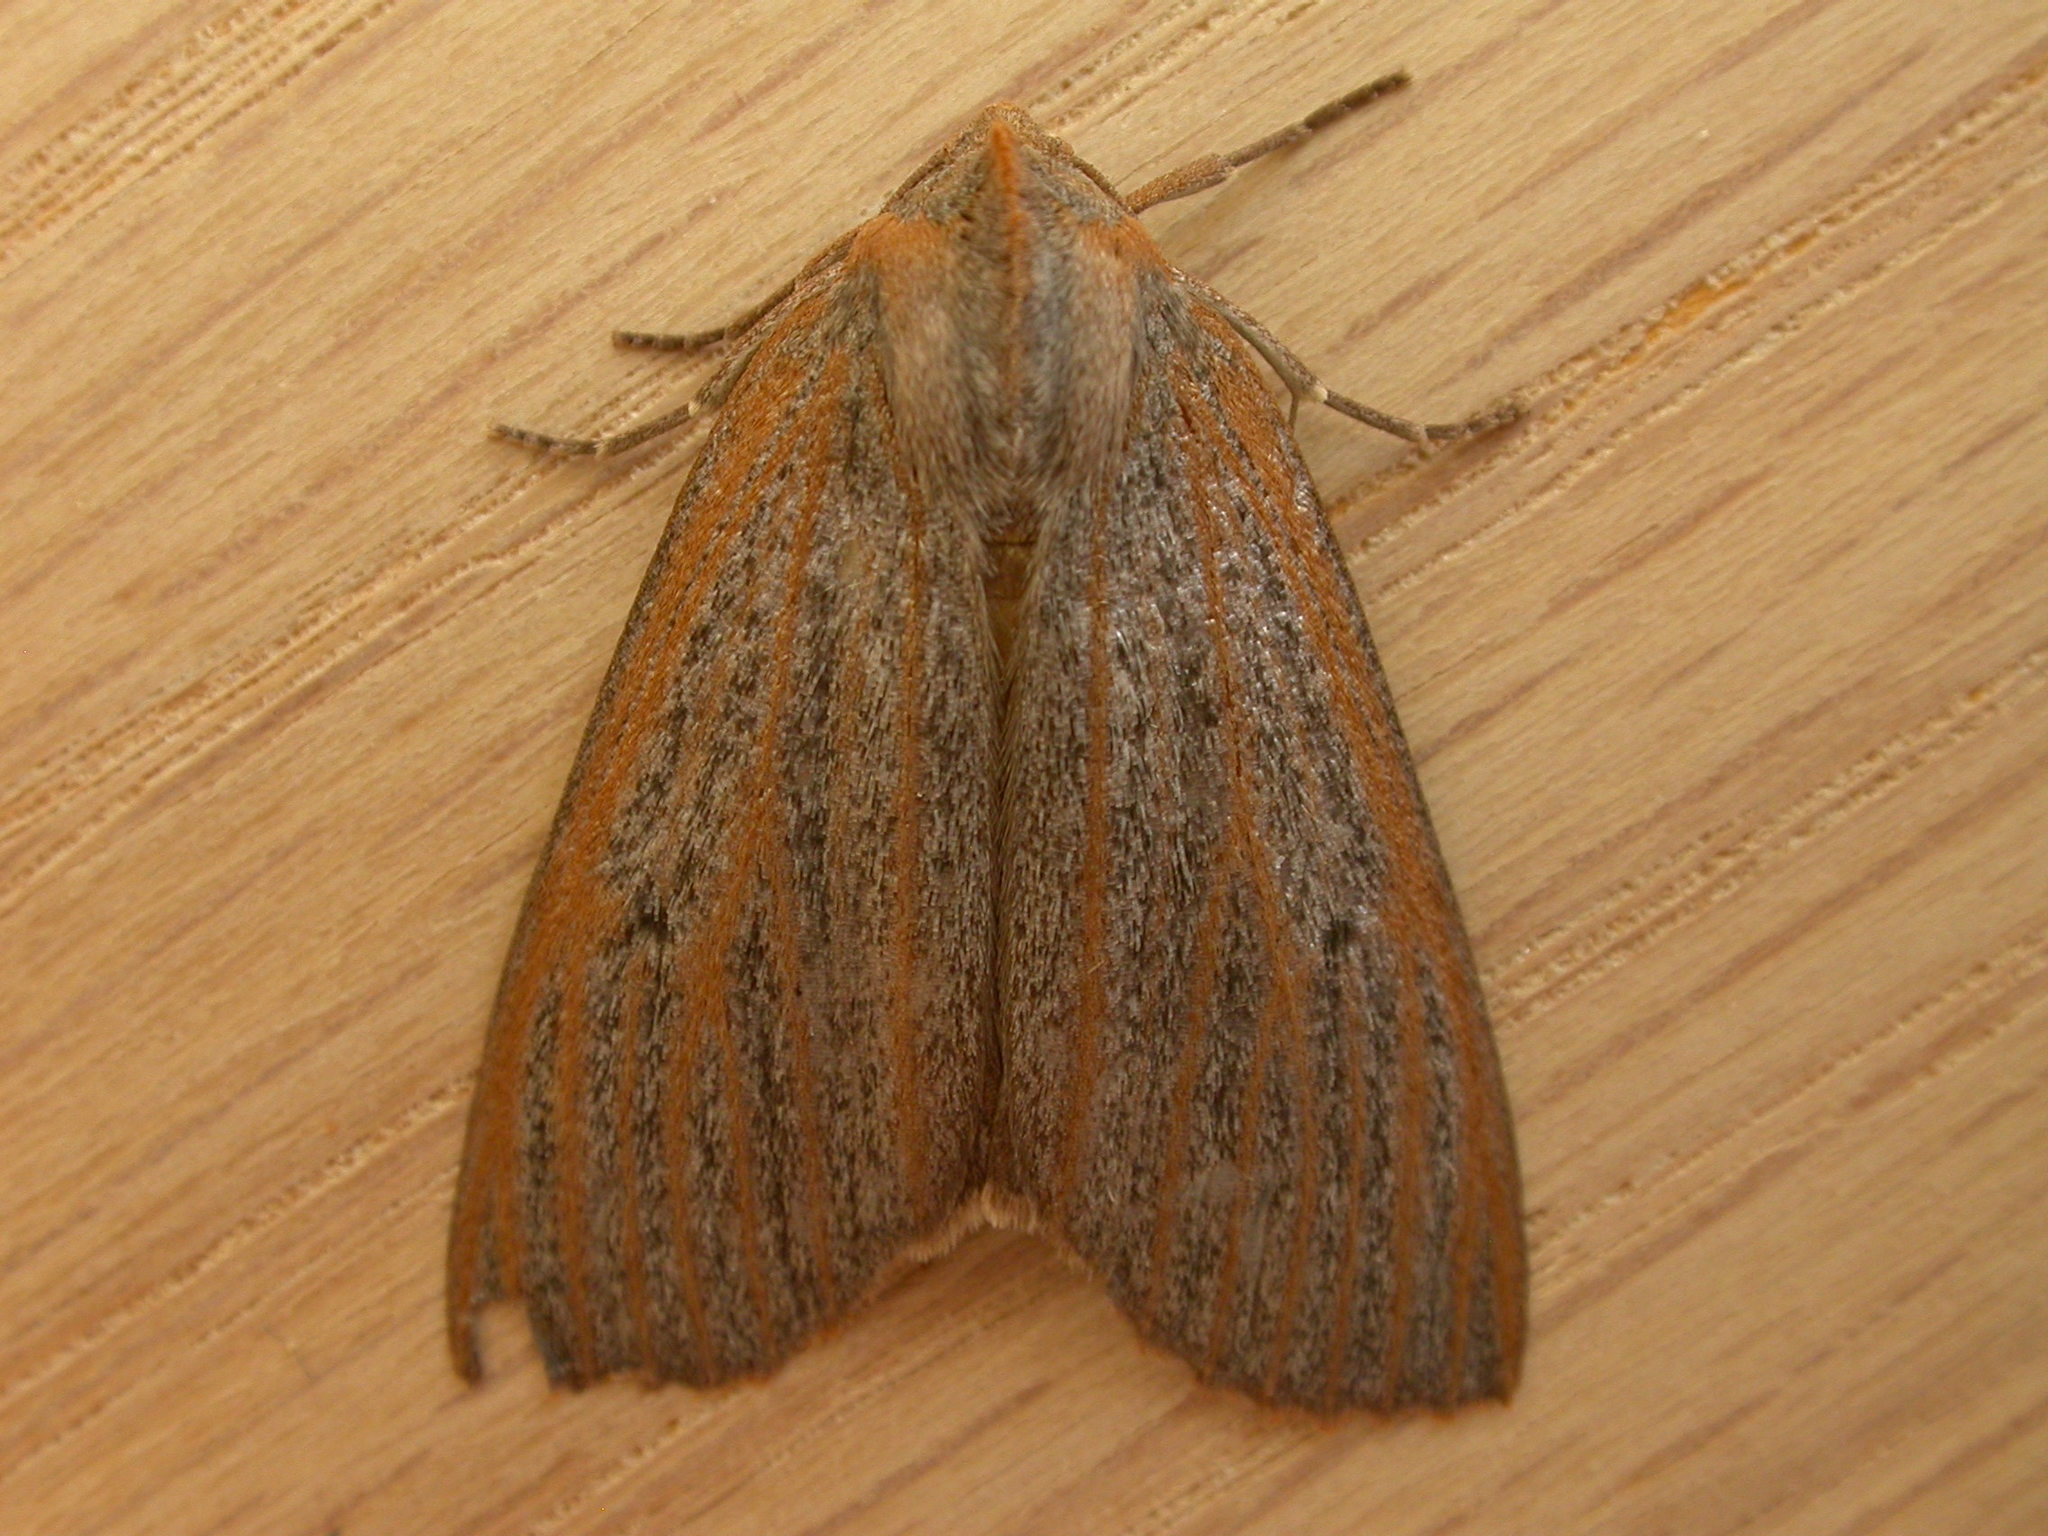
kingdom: Animalia
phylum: Arthropoda
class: Insecta
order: Lepidoptera
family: Geometridae
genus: Paralaea
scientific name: Paralaea porphyrinaria
